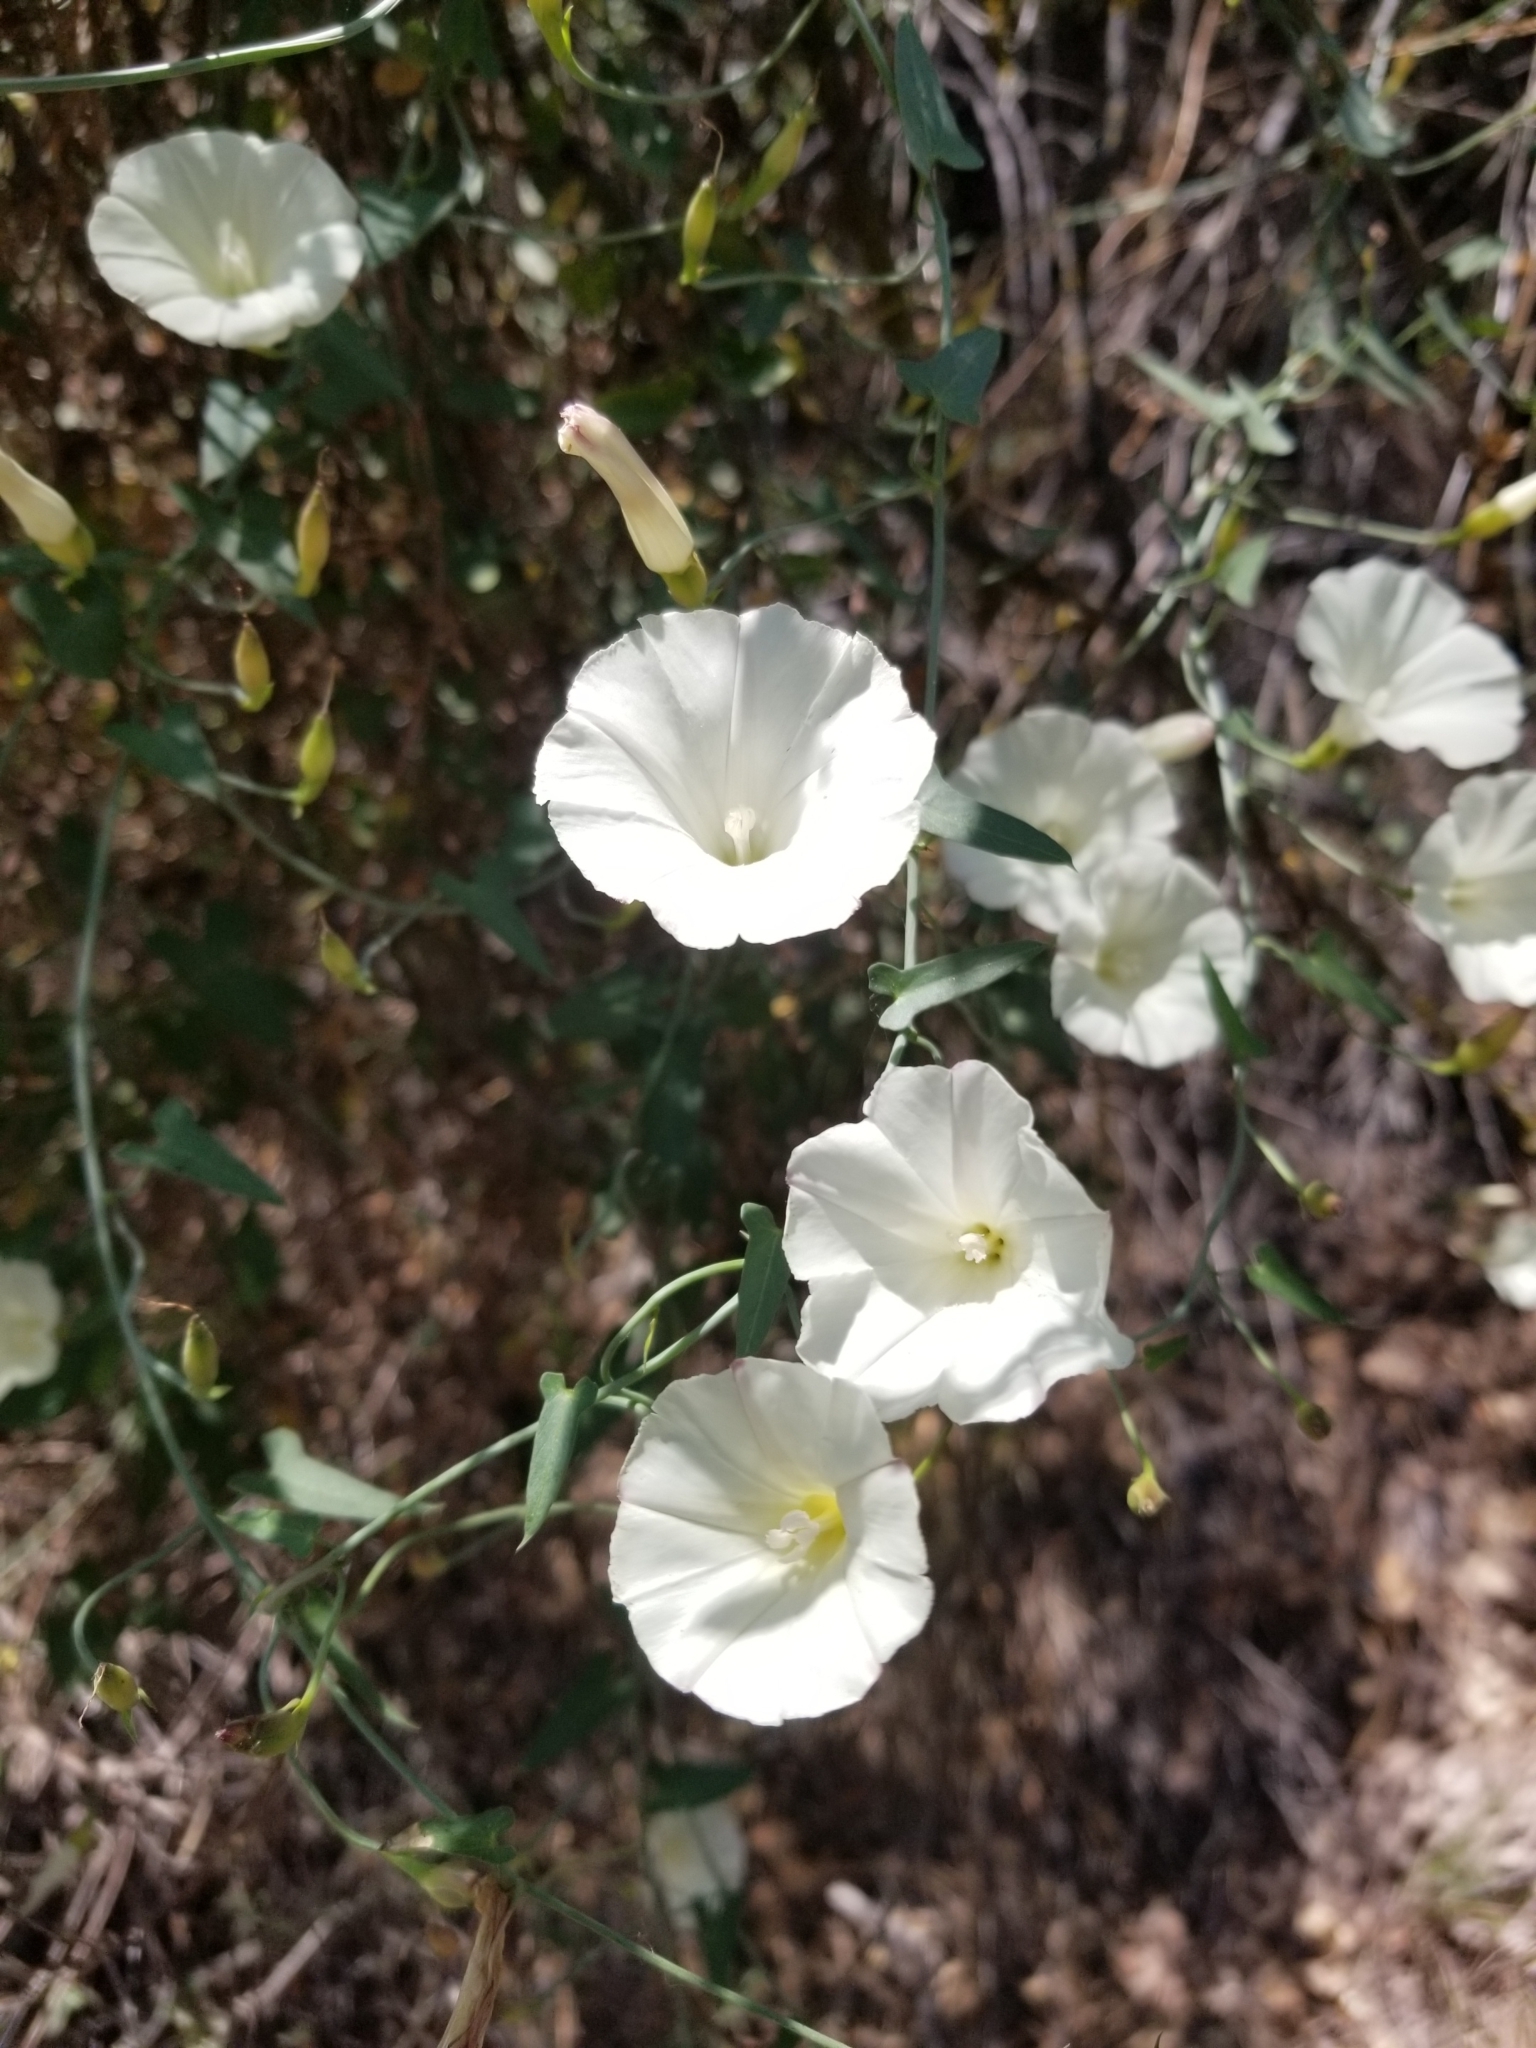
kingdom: Plantae
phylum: Tracheophyta
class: Magnoliopsida
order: Solanales
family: Convolvulaceae
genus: Calystegia
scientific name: Calystegia purpurata
